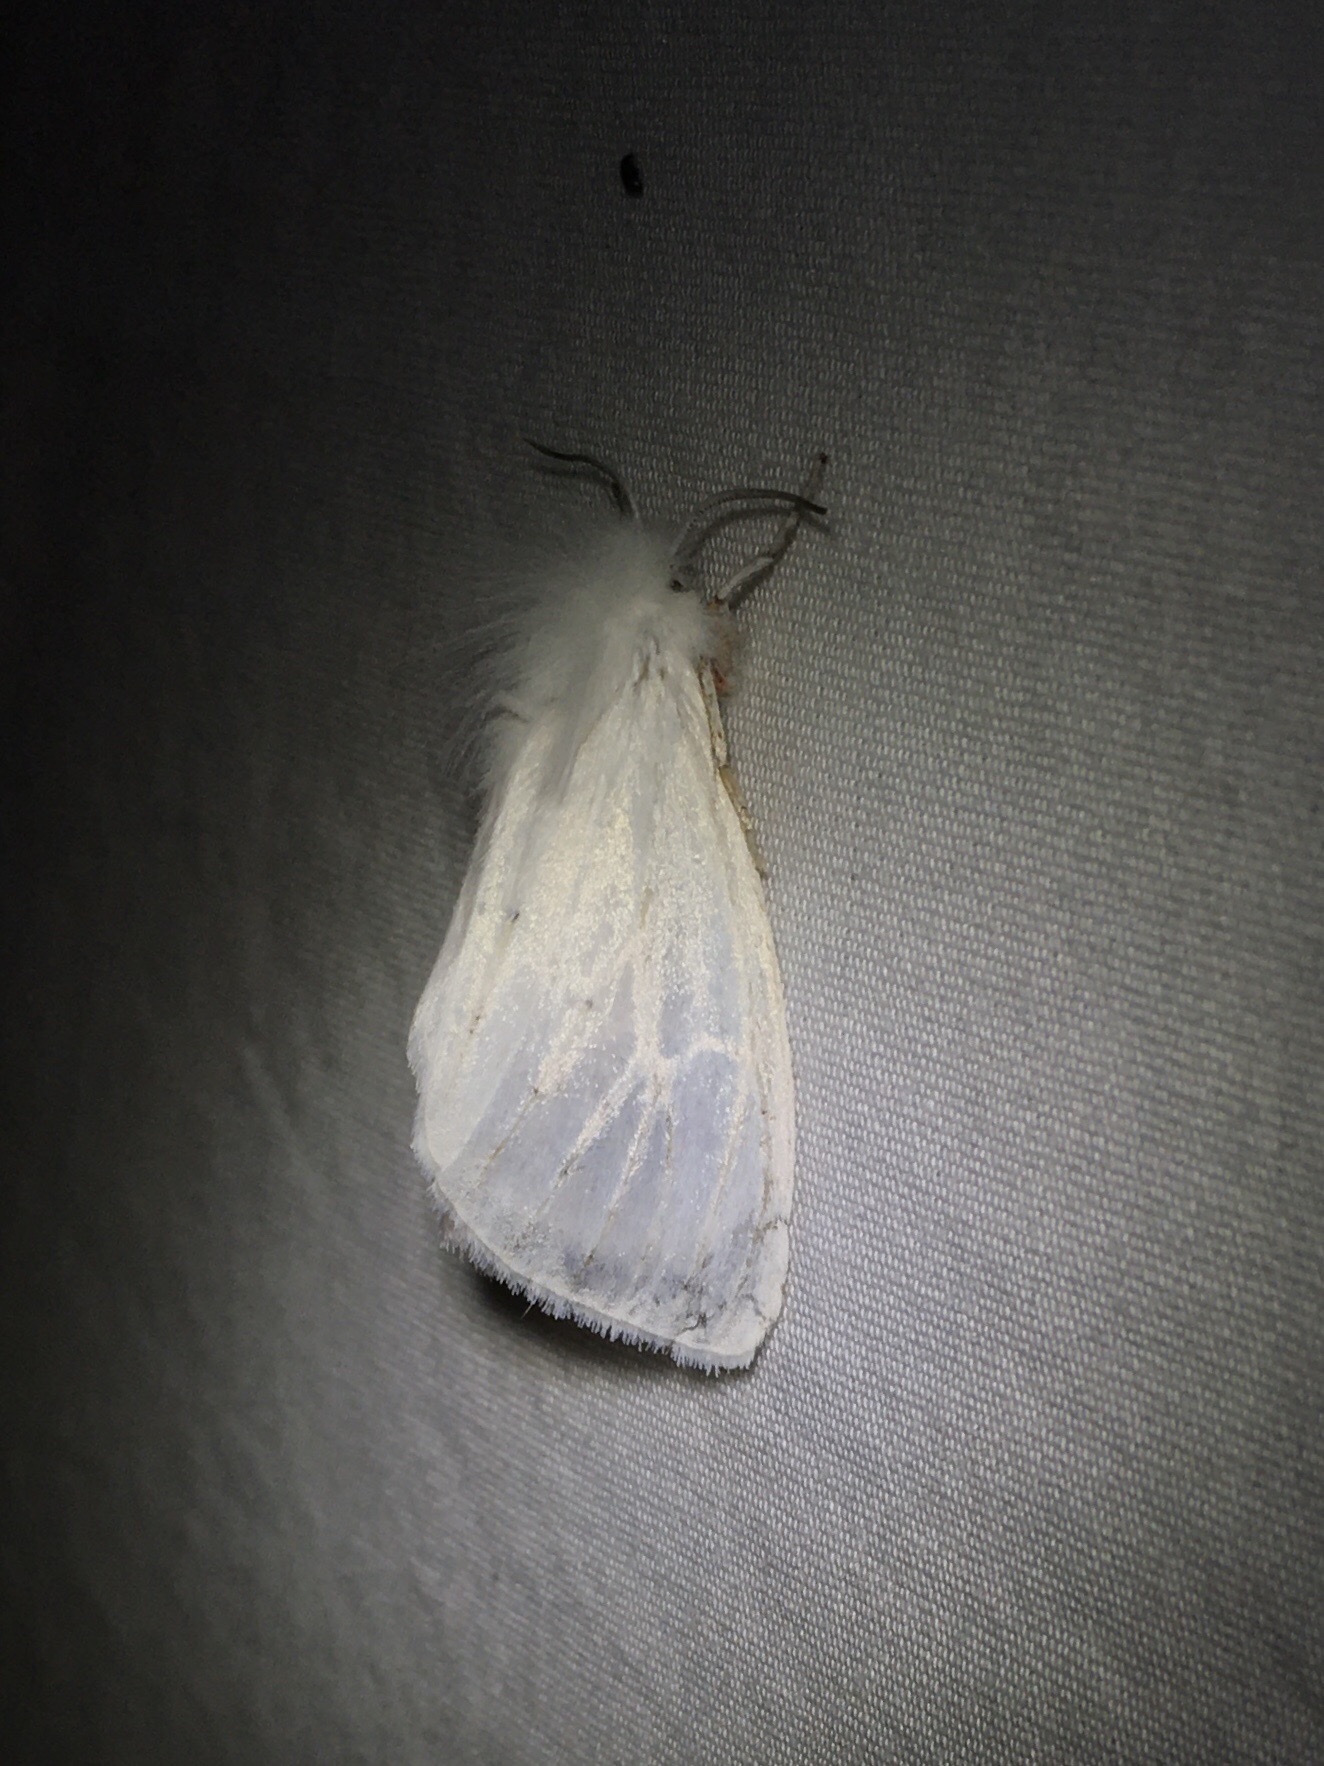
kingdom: Animalia
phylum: Arthropoda
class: Insecta
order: Lepidoptera
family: Erebidae
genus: Spilosoma
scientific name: Spilosoma latipennis
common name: Pink-legged tiger moth
